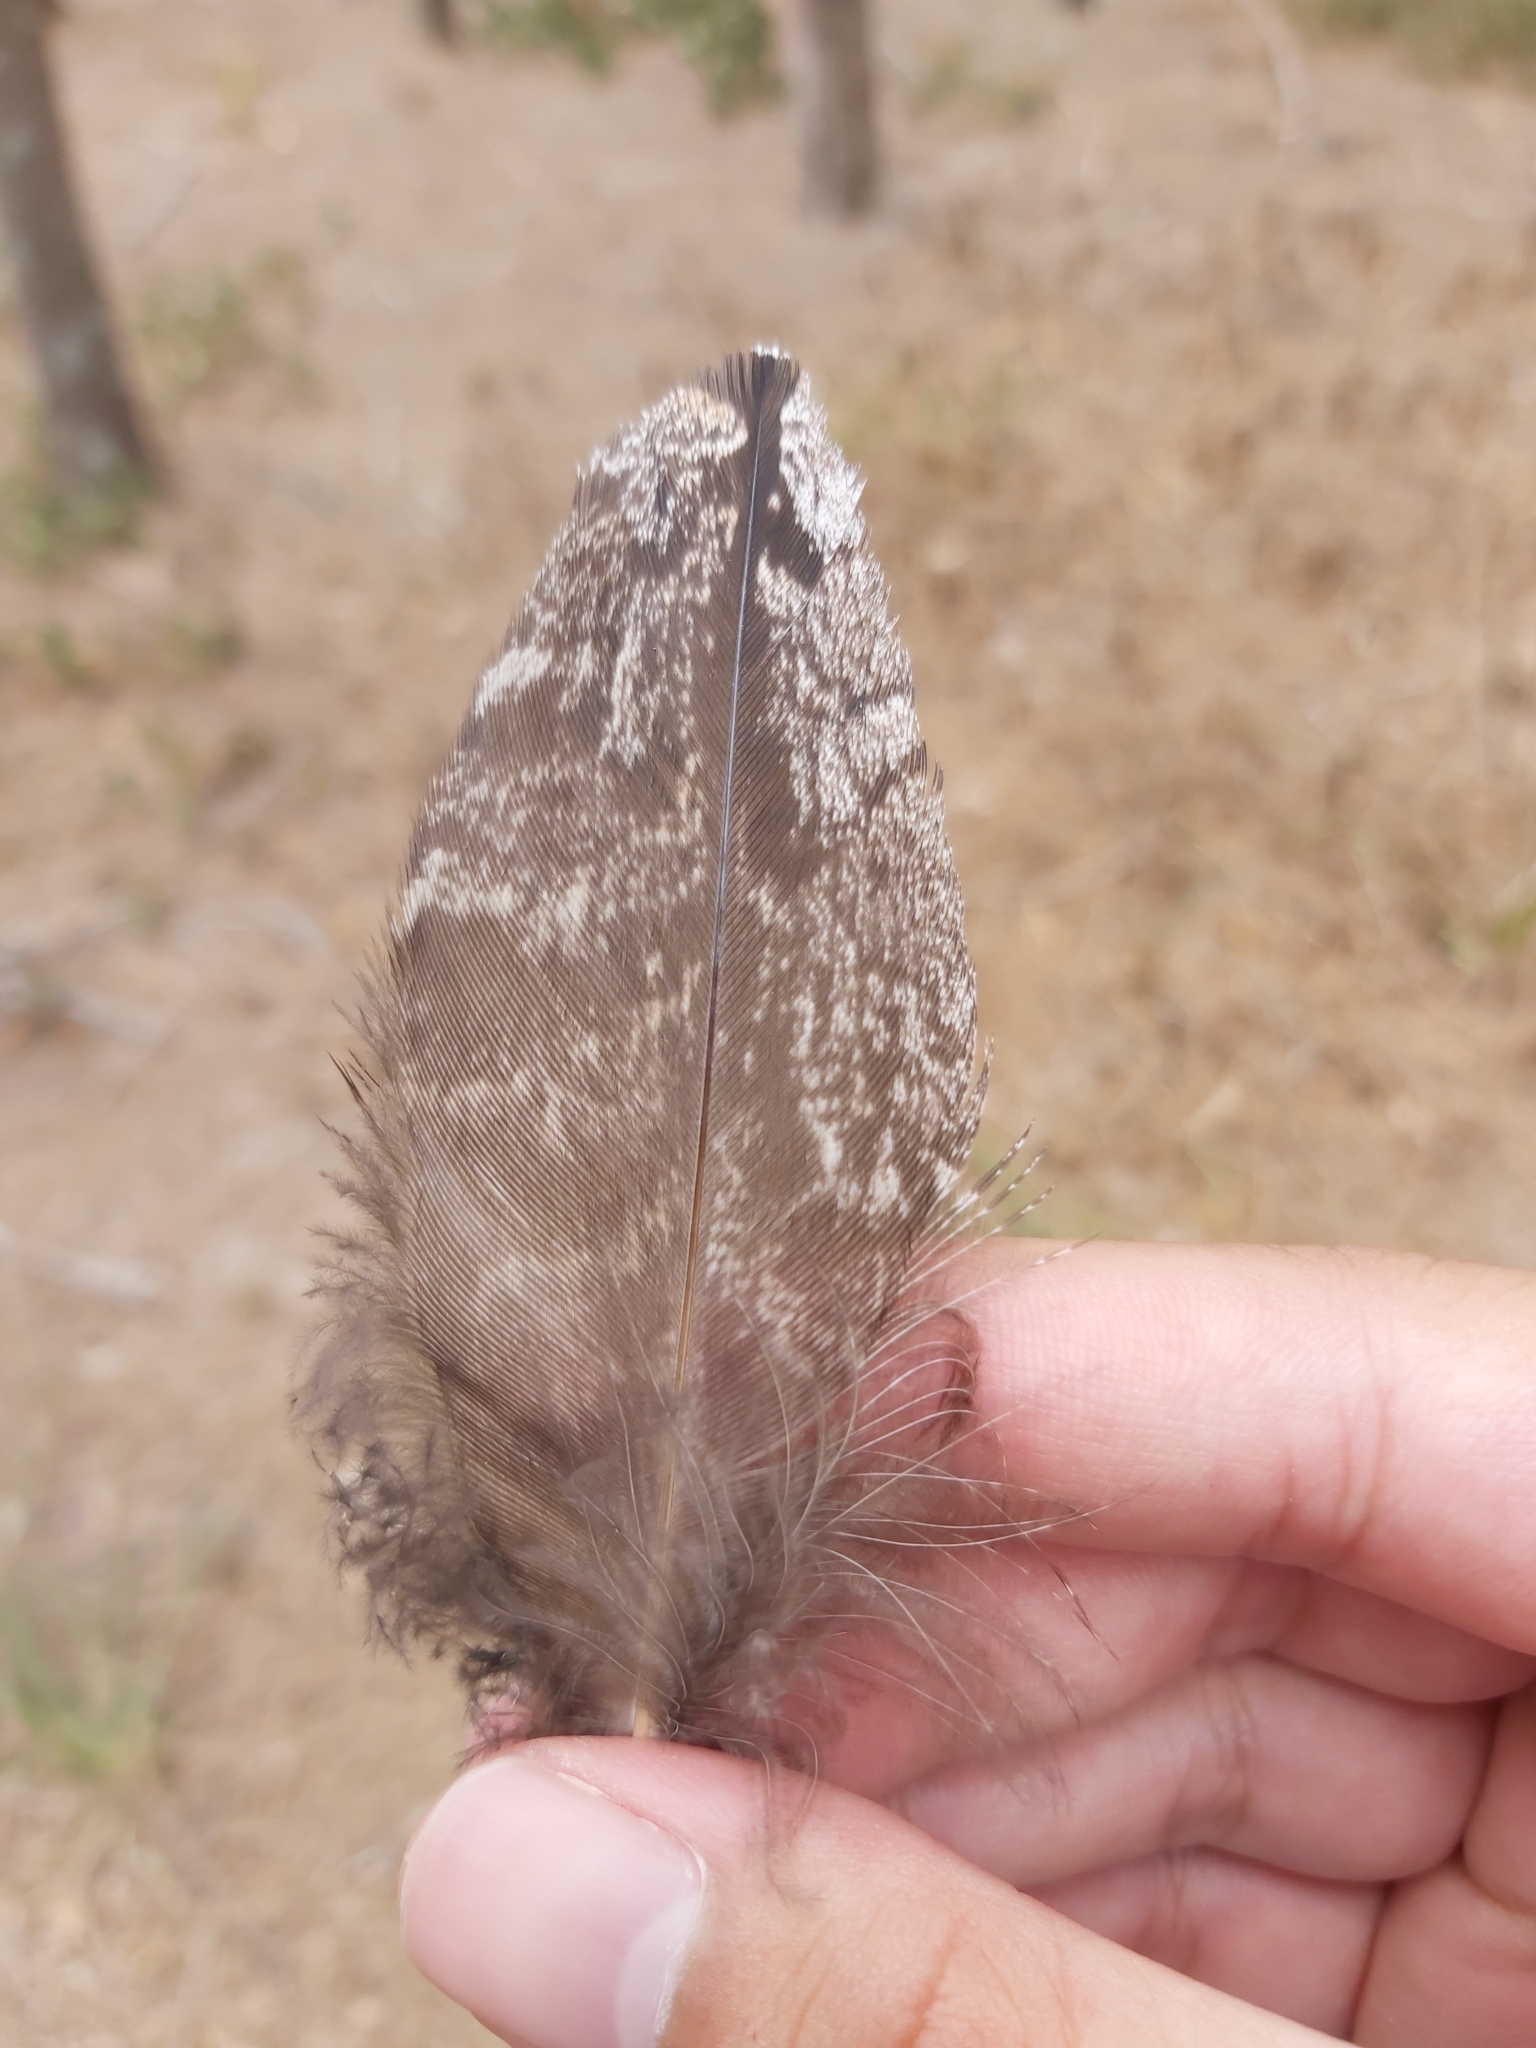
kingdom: Animalia
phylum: Chordata
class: Aves
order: Caprimulgiformes
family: Podargidae
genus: Podargus
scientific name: Podargus strigoides
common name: Tawny frogmouth
